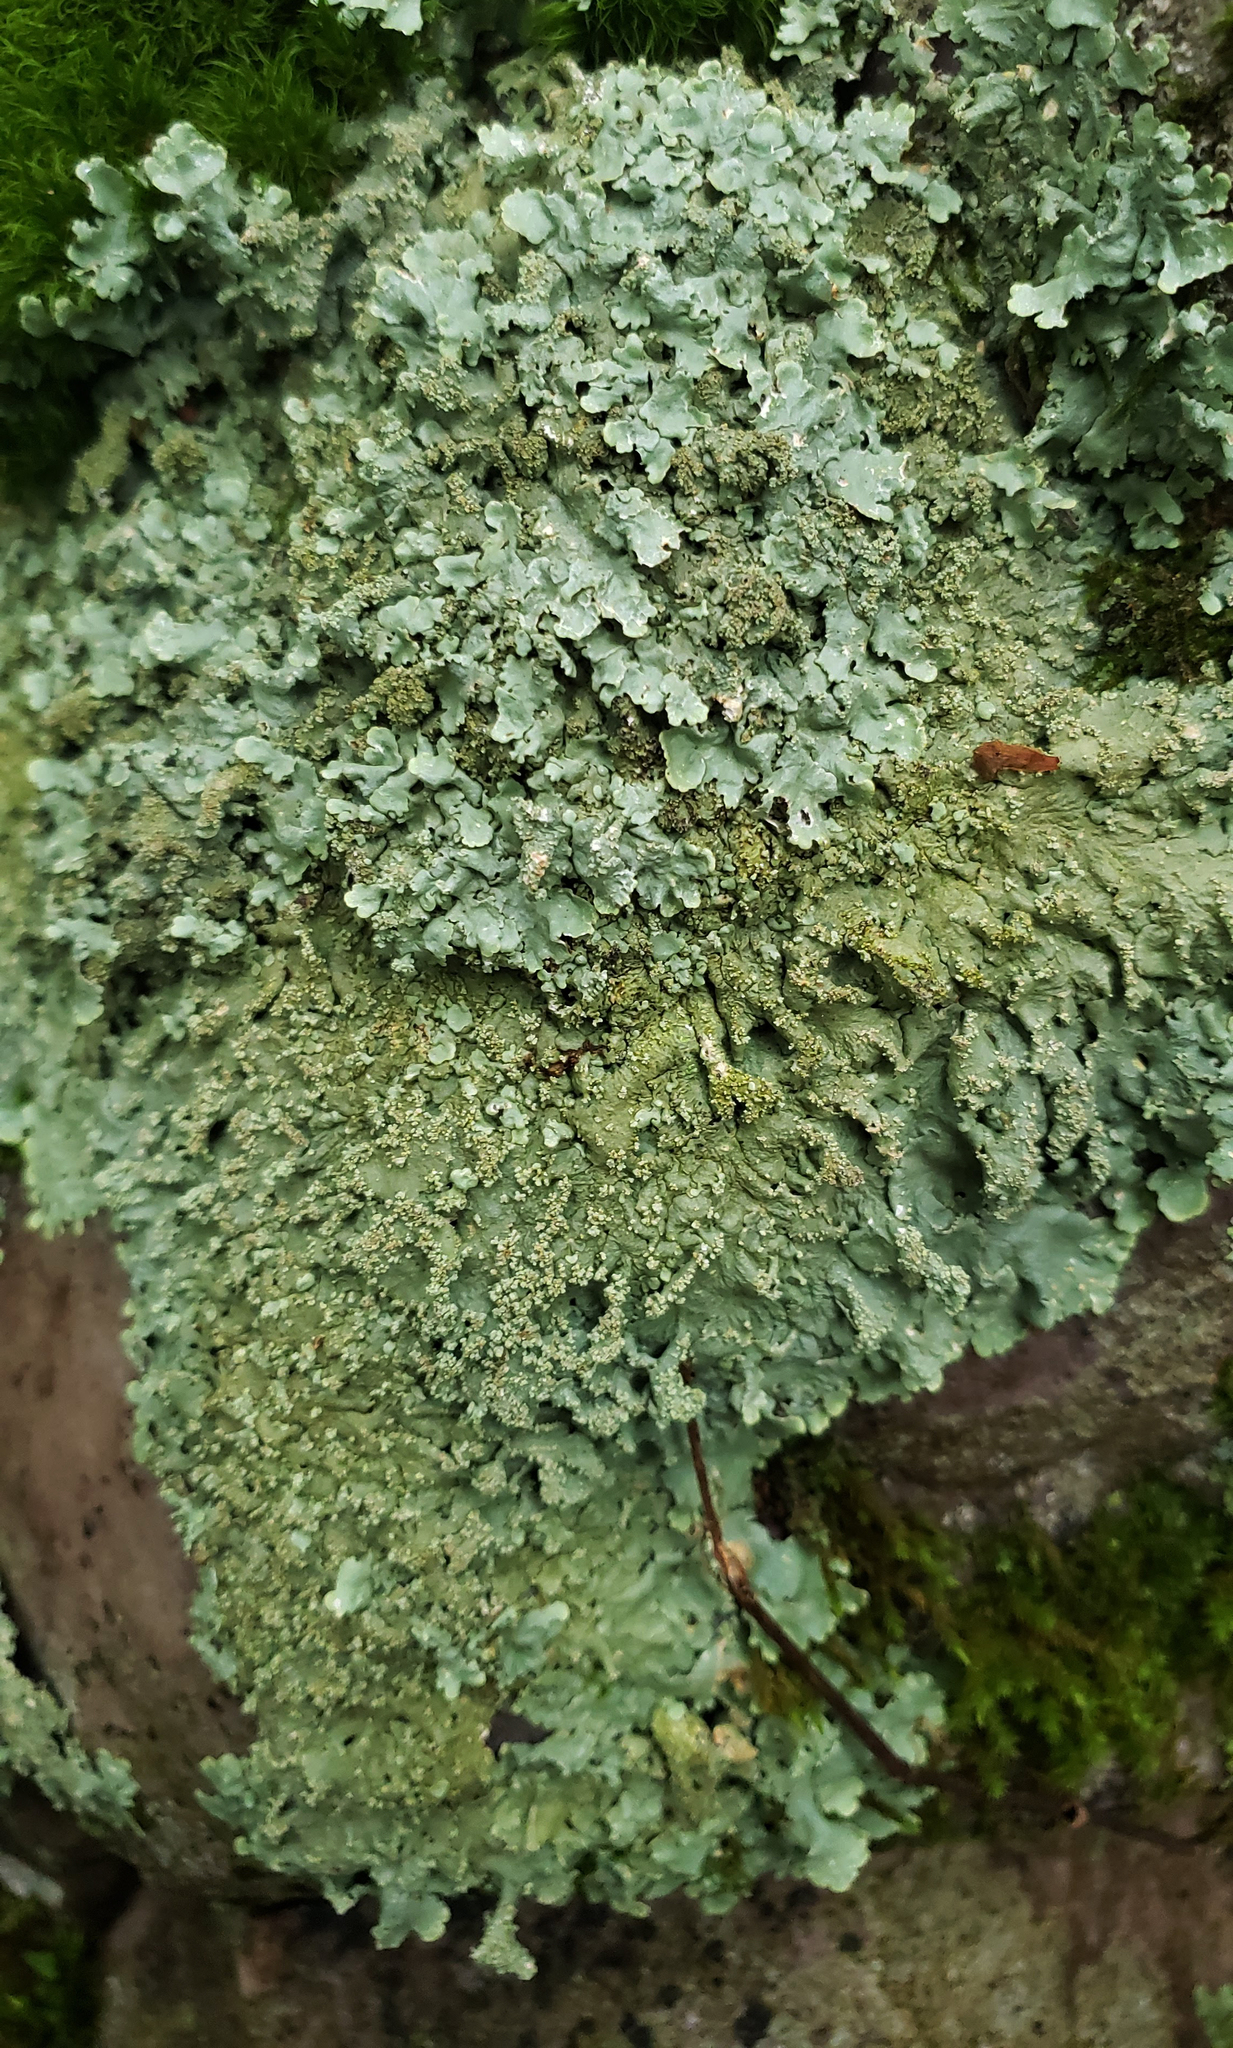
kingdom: Fungi
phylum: Ascomycota
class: Lecanoromycetes
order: Lecanorales
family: Parmeliaceae
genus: Flavoparmelia
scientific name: Flavoparmelia baltimorensis
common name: Rock greenshield
